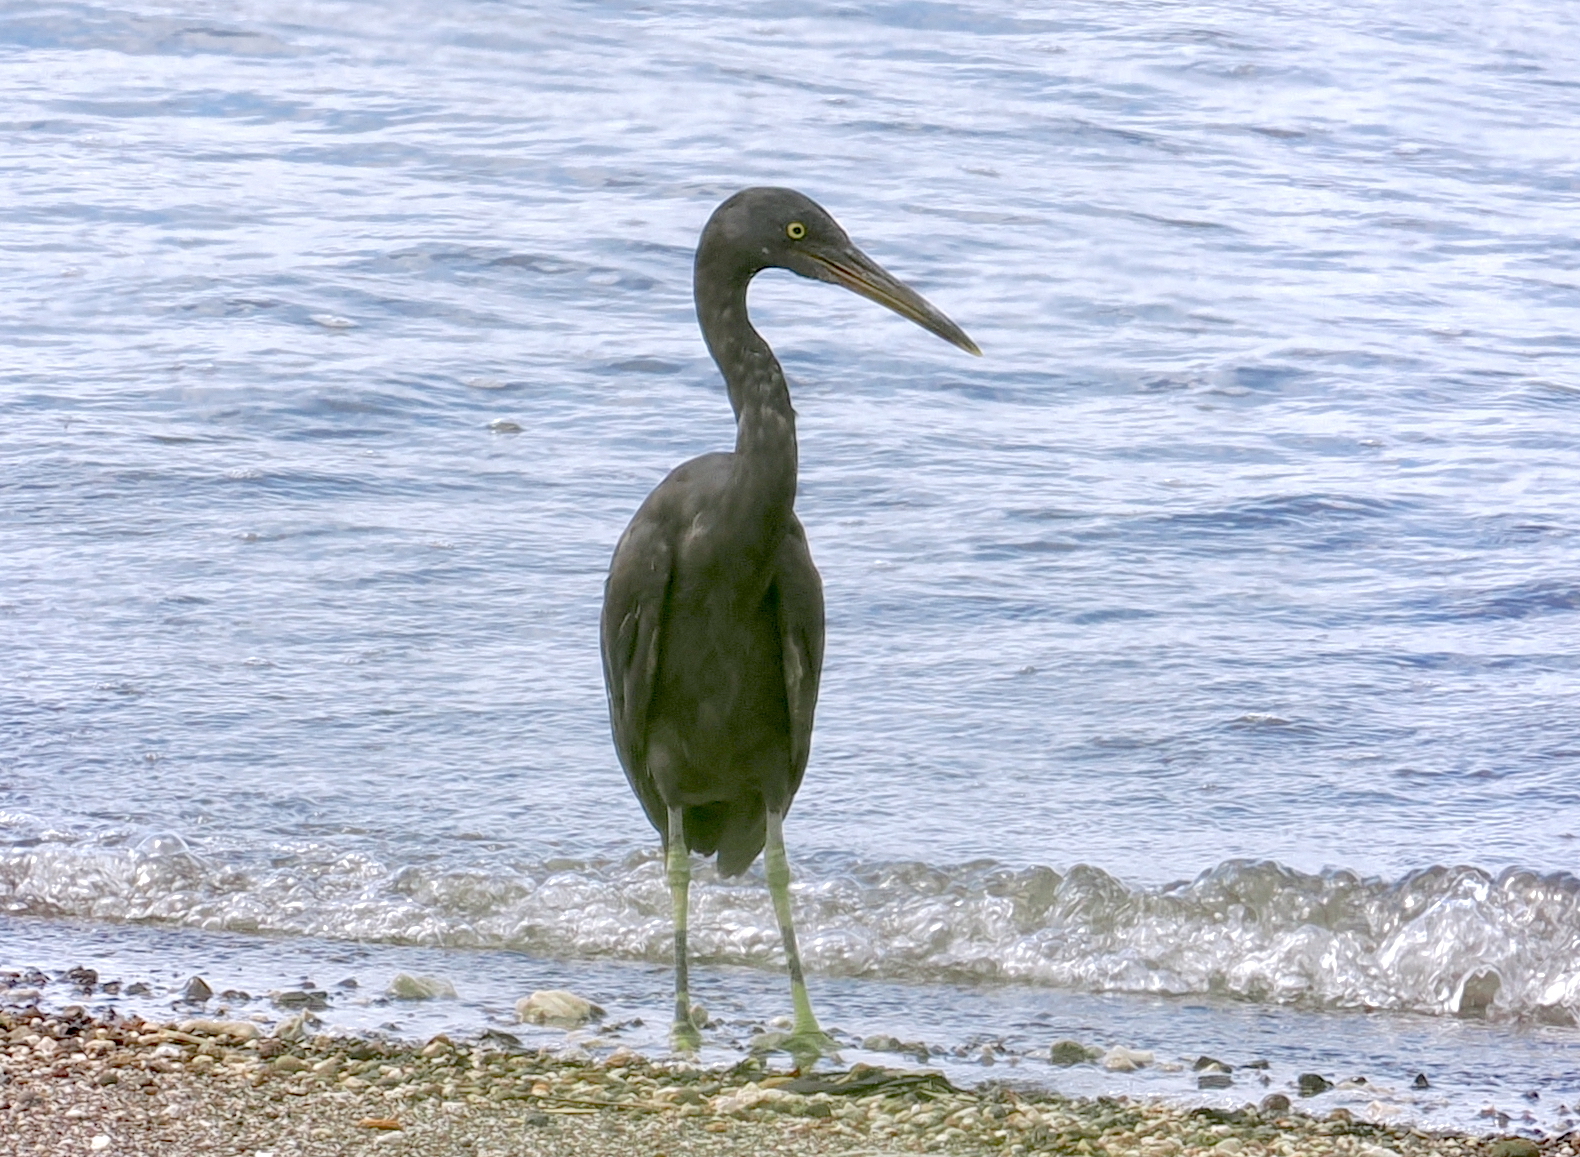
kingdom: Animalia
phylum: Chordata
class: Aves
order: Pelecaniformes
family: Ardeidae
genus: Egretta
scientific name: Egretta sacra
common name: Pacific reef heron
